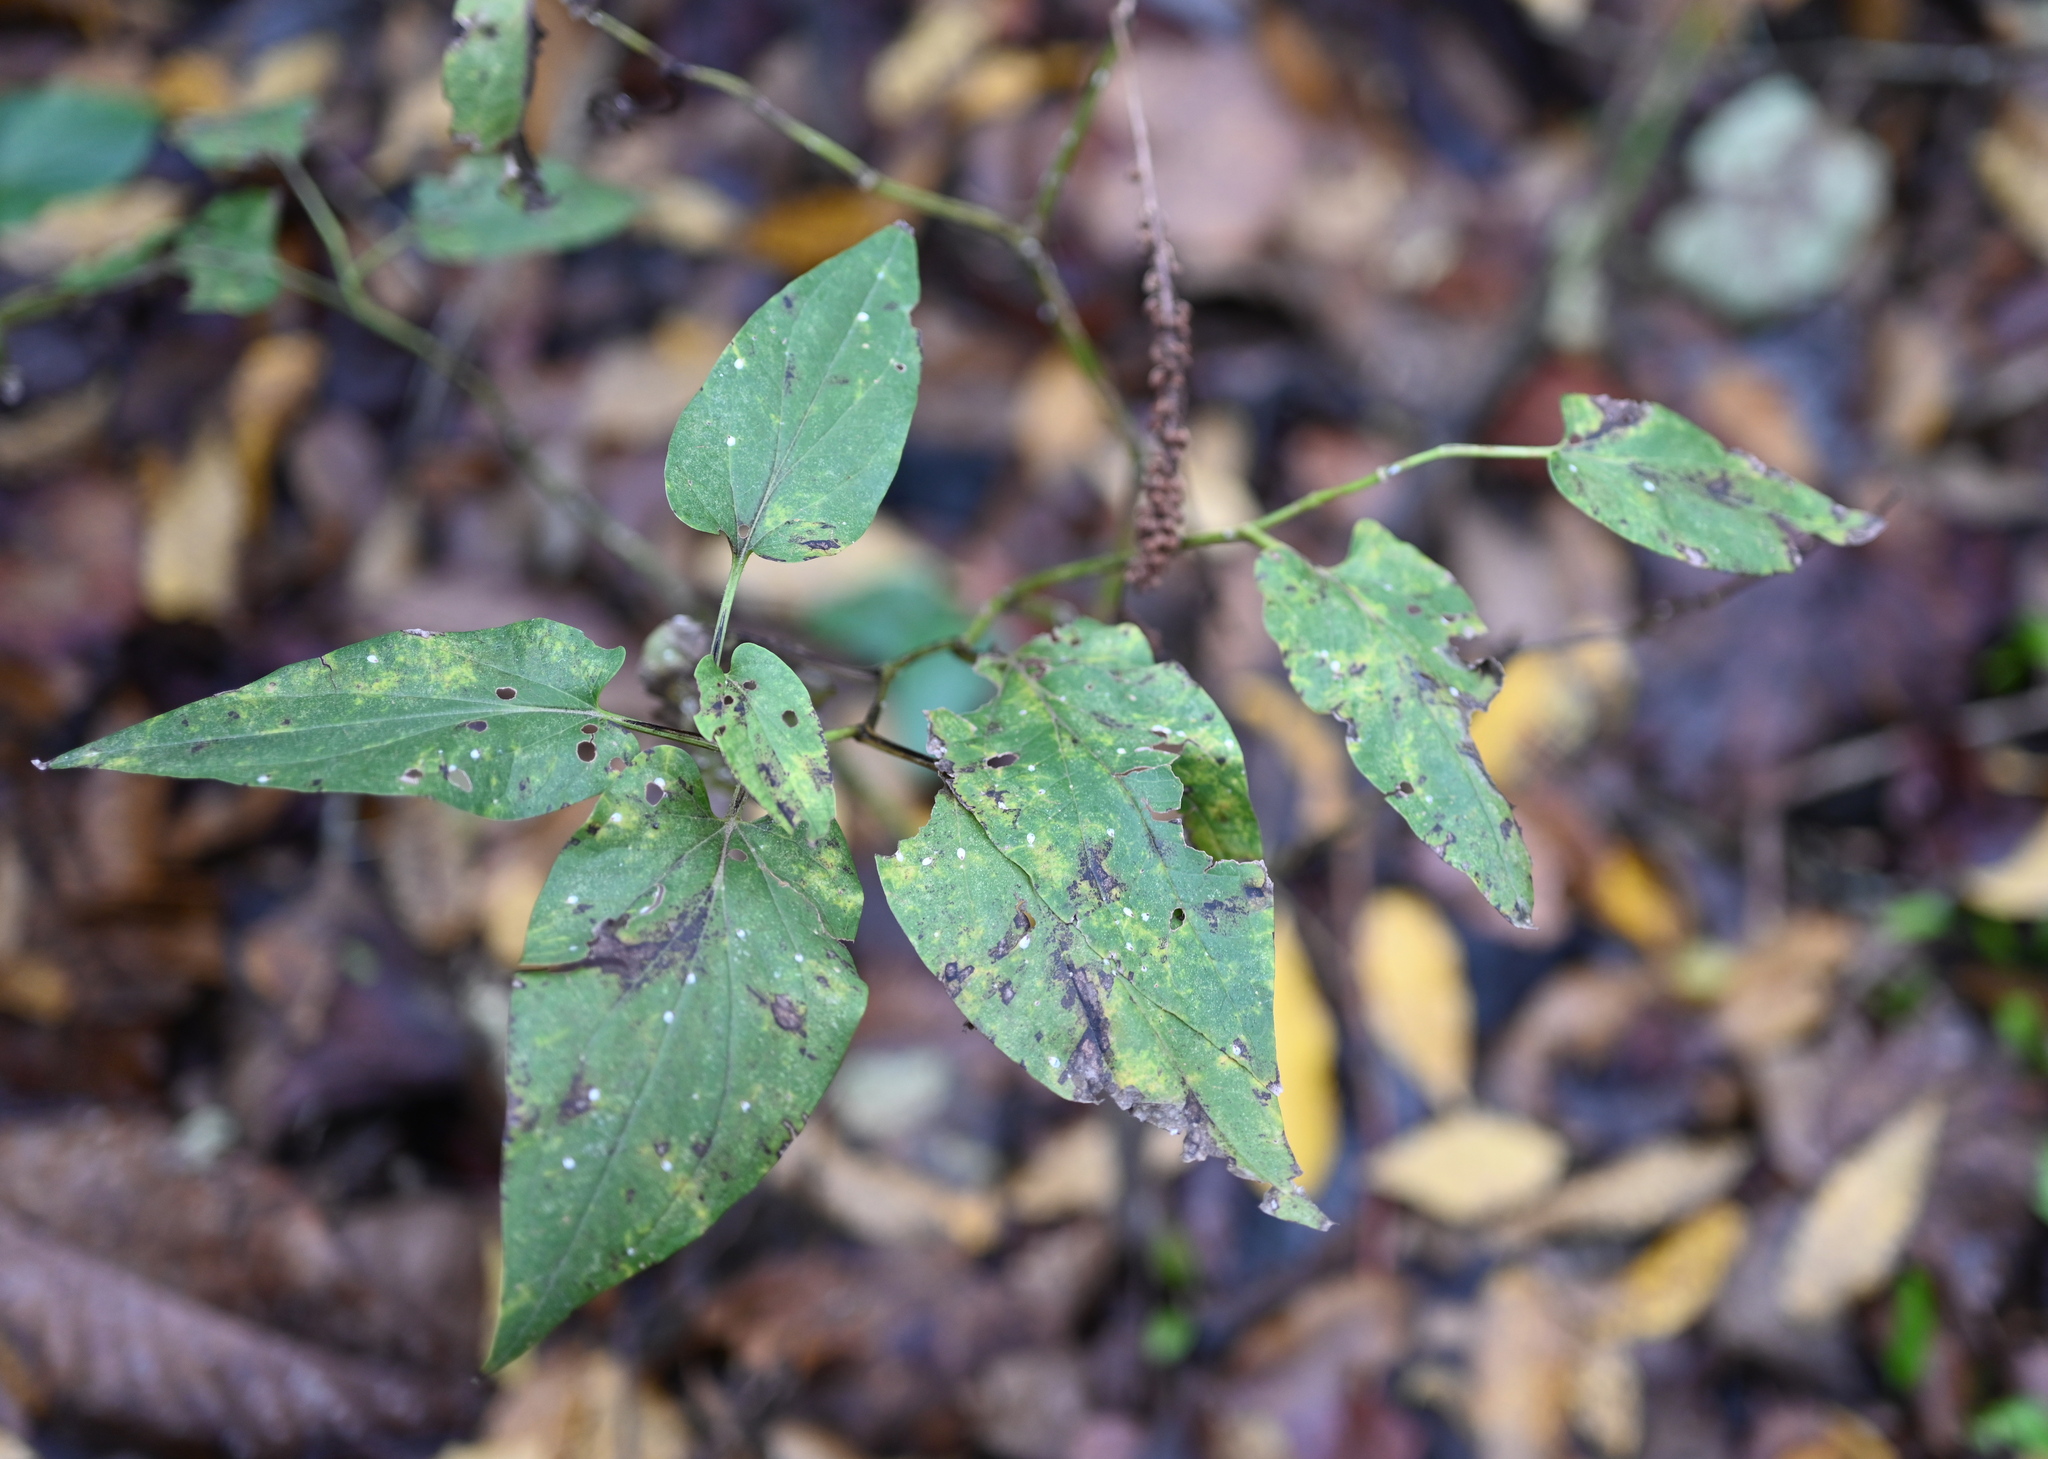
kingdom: Plantae
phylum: Tracheophyta
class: Magnoliopsida
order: Piperales
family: Saururaceae
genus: Saururus
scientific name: Saururus cernuus
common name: Lizard's-tail
